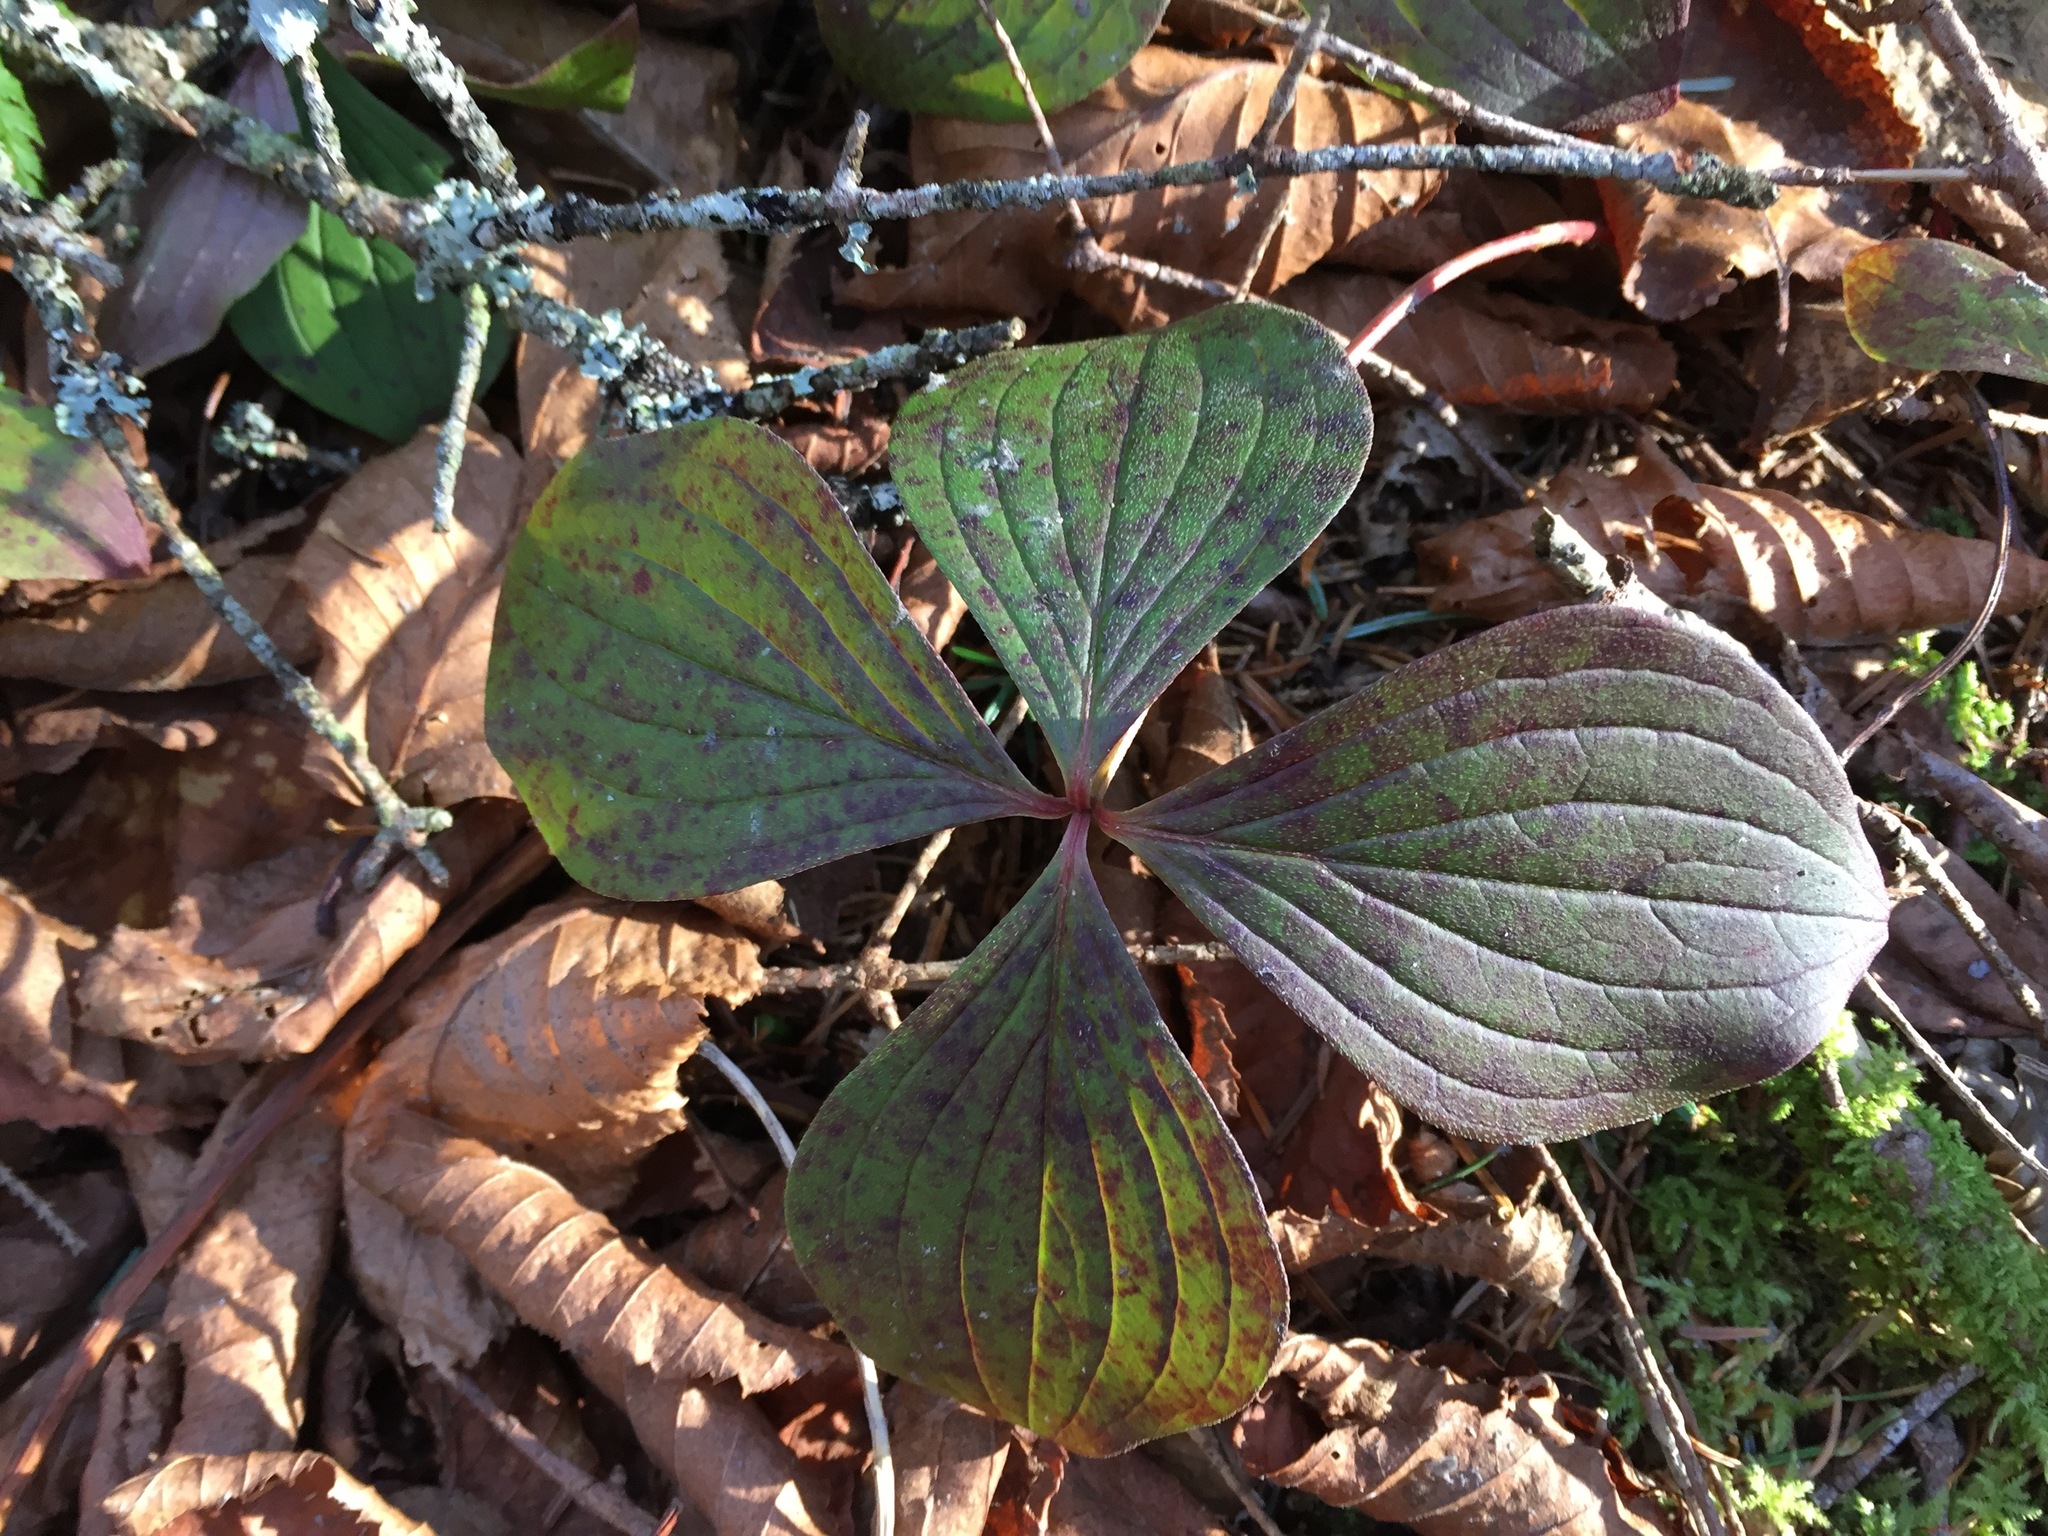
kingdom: Plantae
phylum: Tracheophyta
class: Magnoliopsida
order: Cornales
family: Cornaceae
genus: Cornus
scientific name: Cornus canadensis
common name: Creeping dogwood
